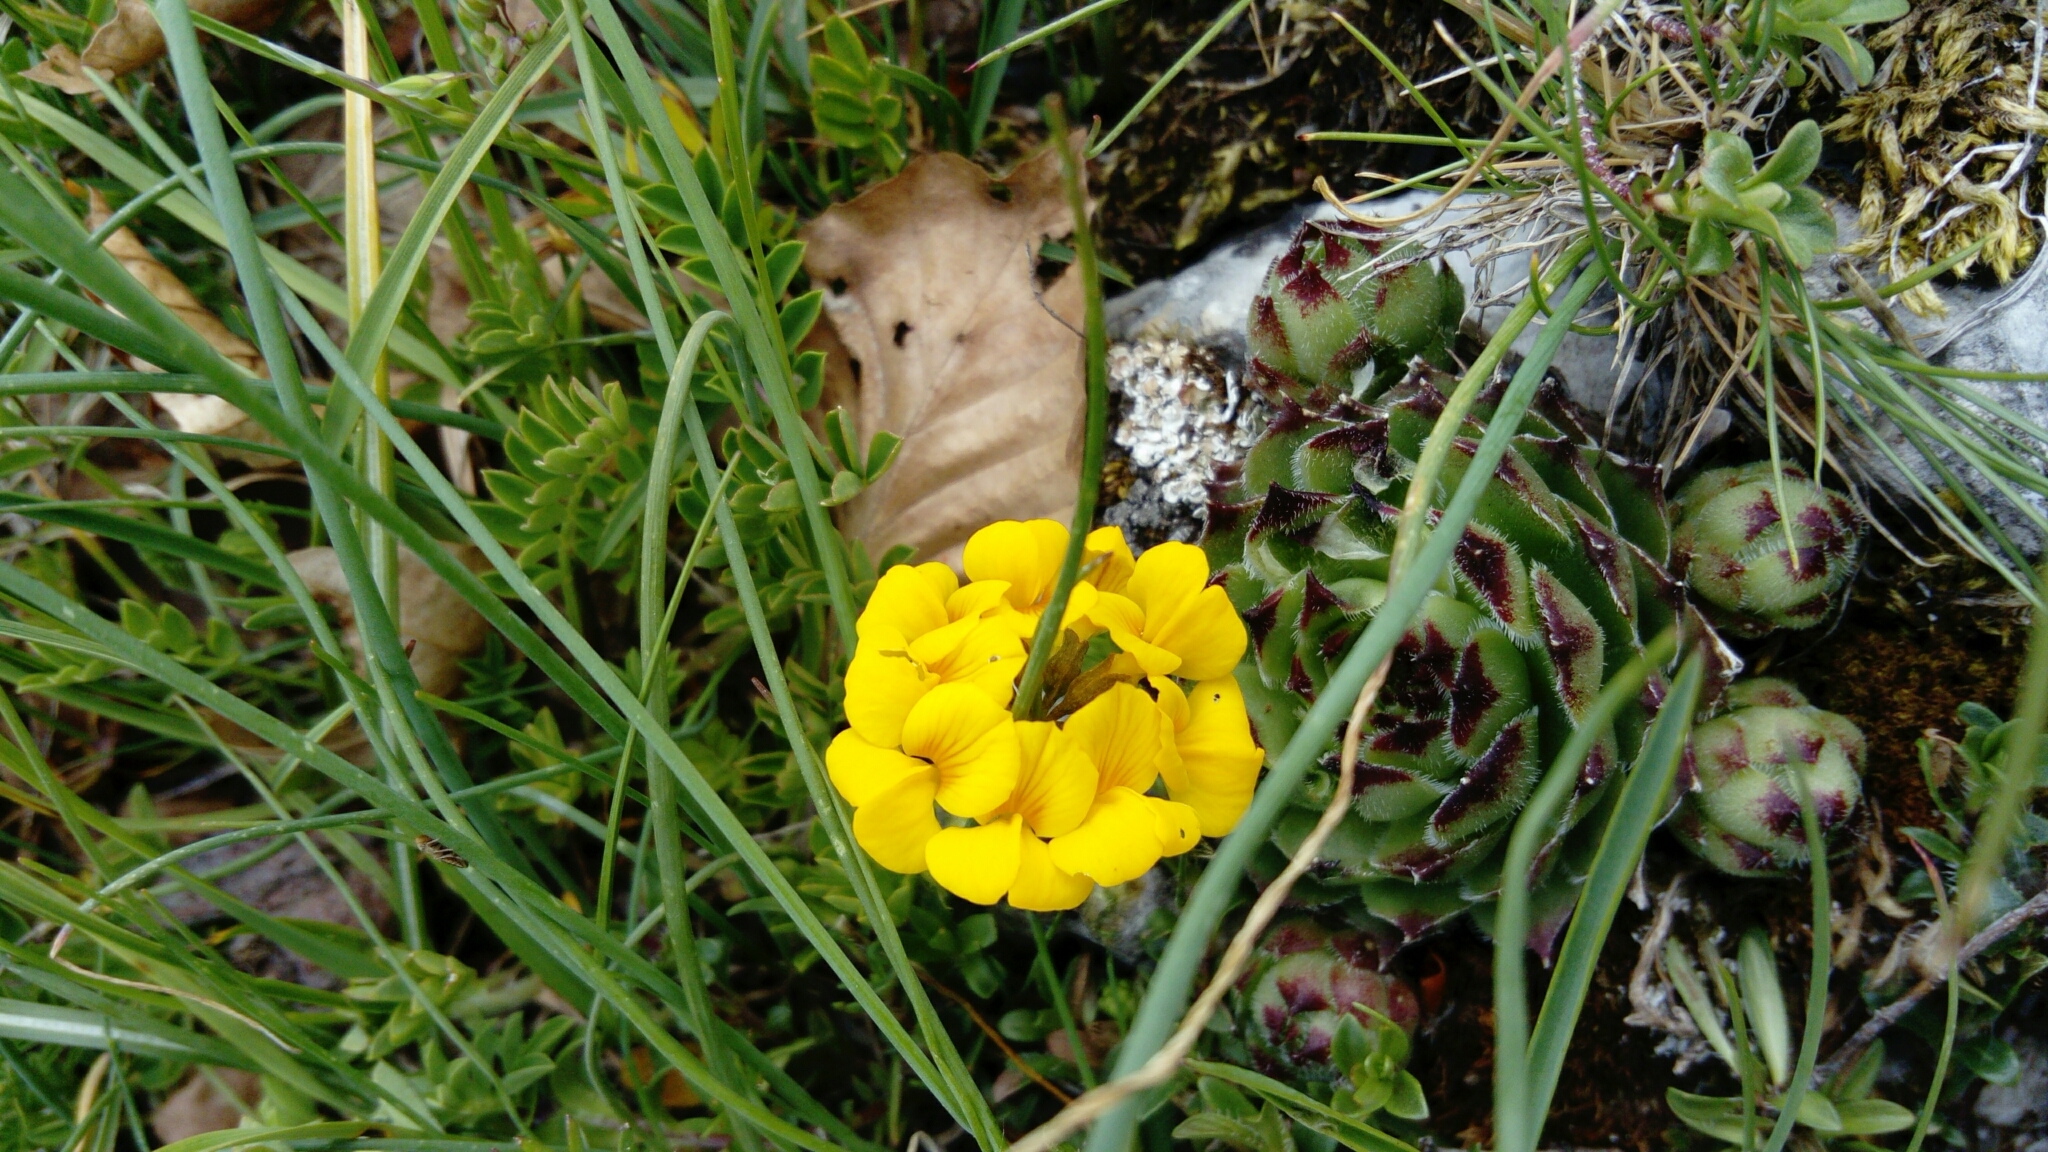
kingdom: Plantae
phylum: Tracheophyta
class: Magnoliopsida
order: Fabales
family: Fabaceae
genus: Hippocrepis
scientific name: Hippocrepis comosa
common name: Horseshoe vetch
